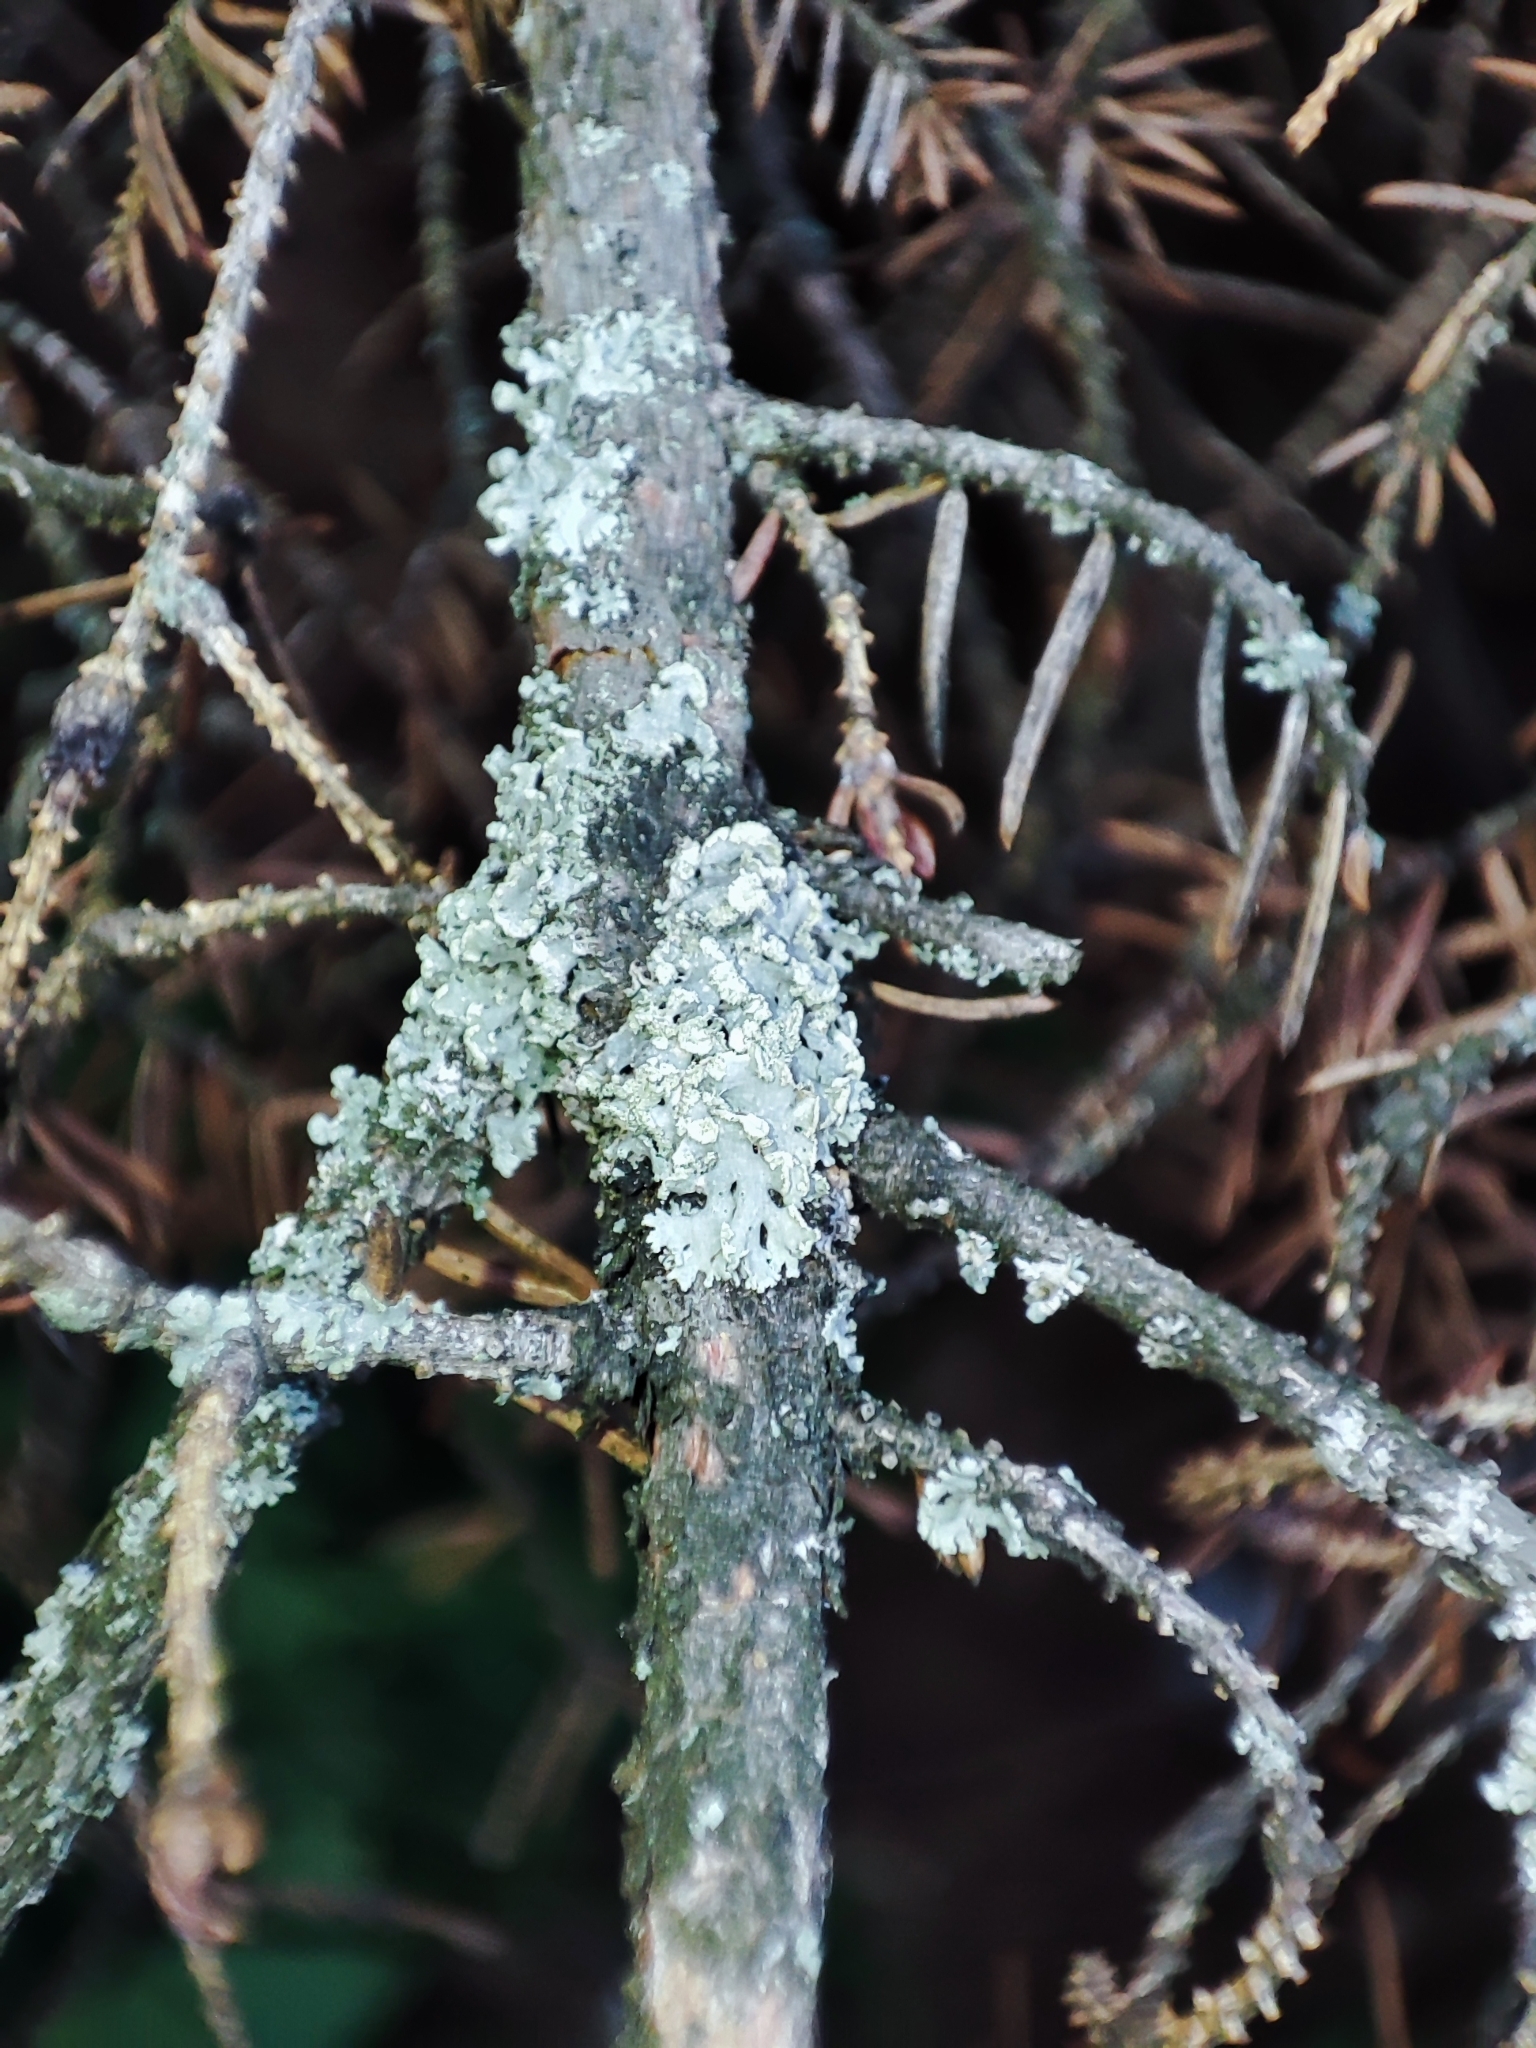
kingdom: Fungi
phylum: Ascomycota
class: Lecanoromycetes
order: Lecanorales
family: Parmeliaceae
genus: Hypogymnia
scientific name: Hypogymnia physodes
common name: Dark crottle
